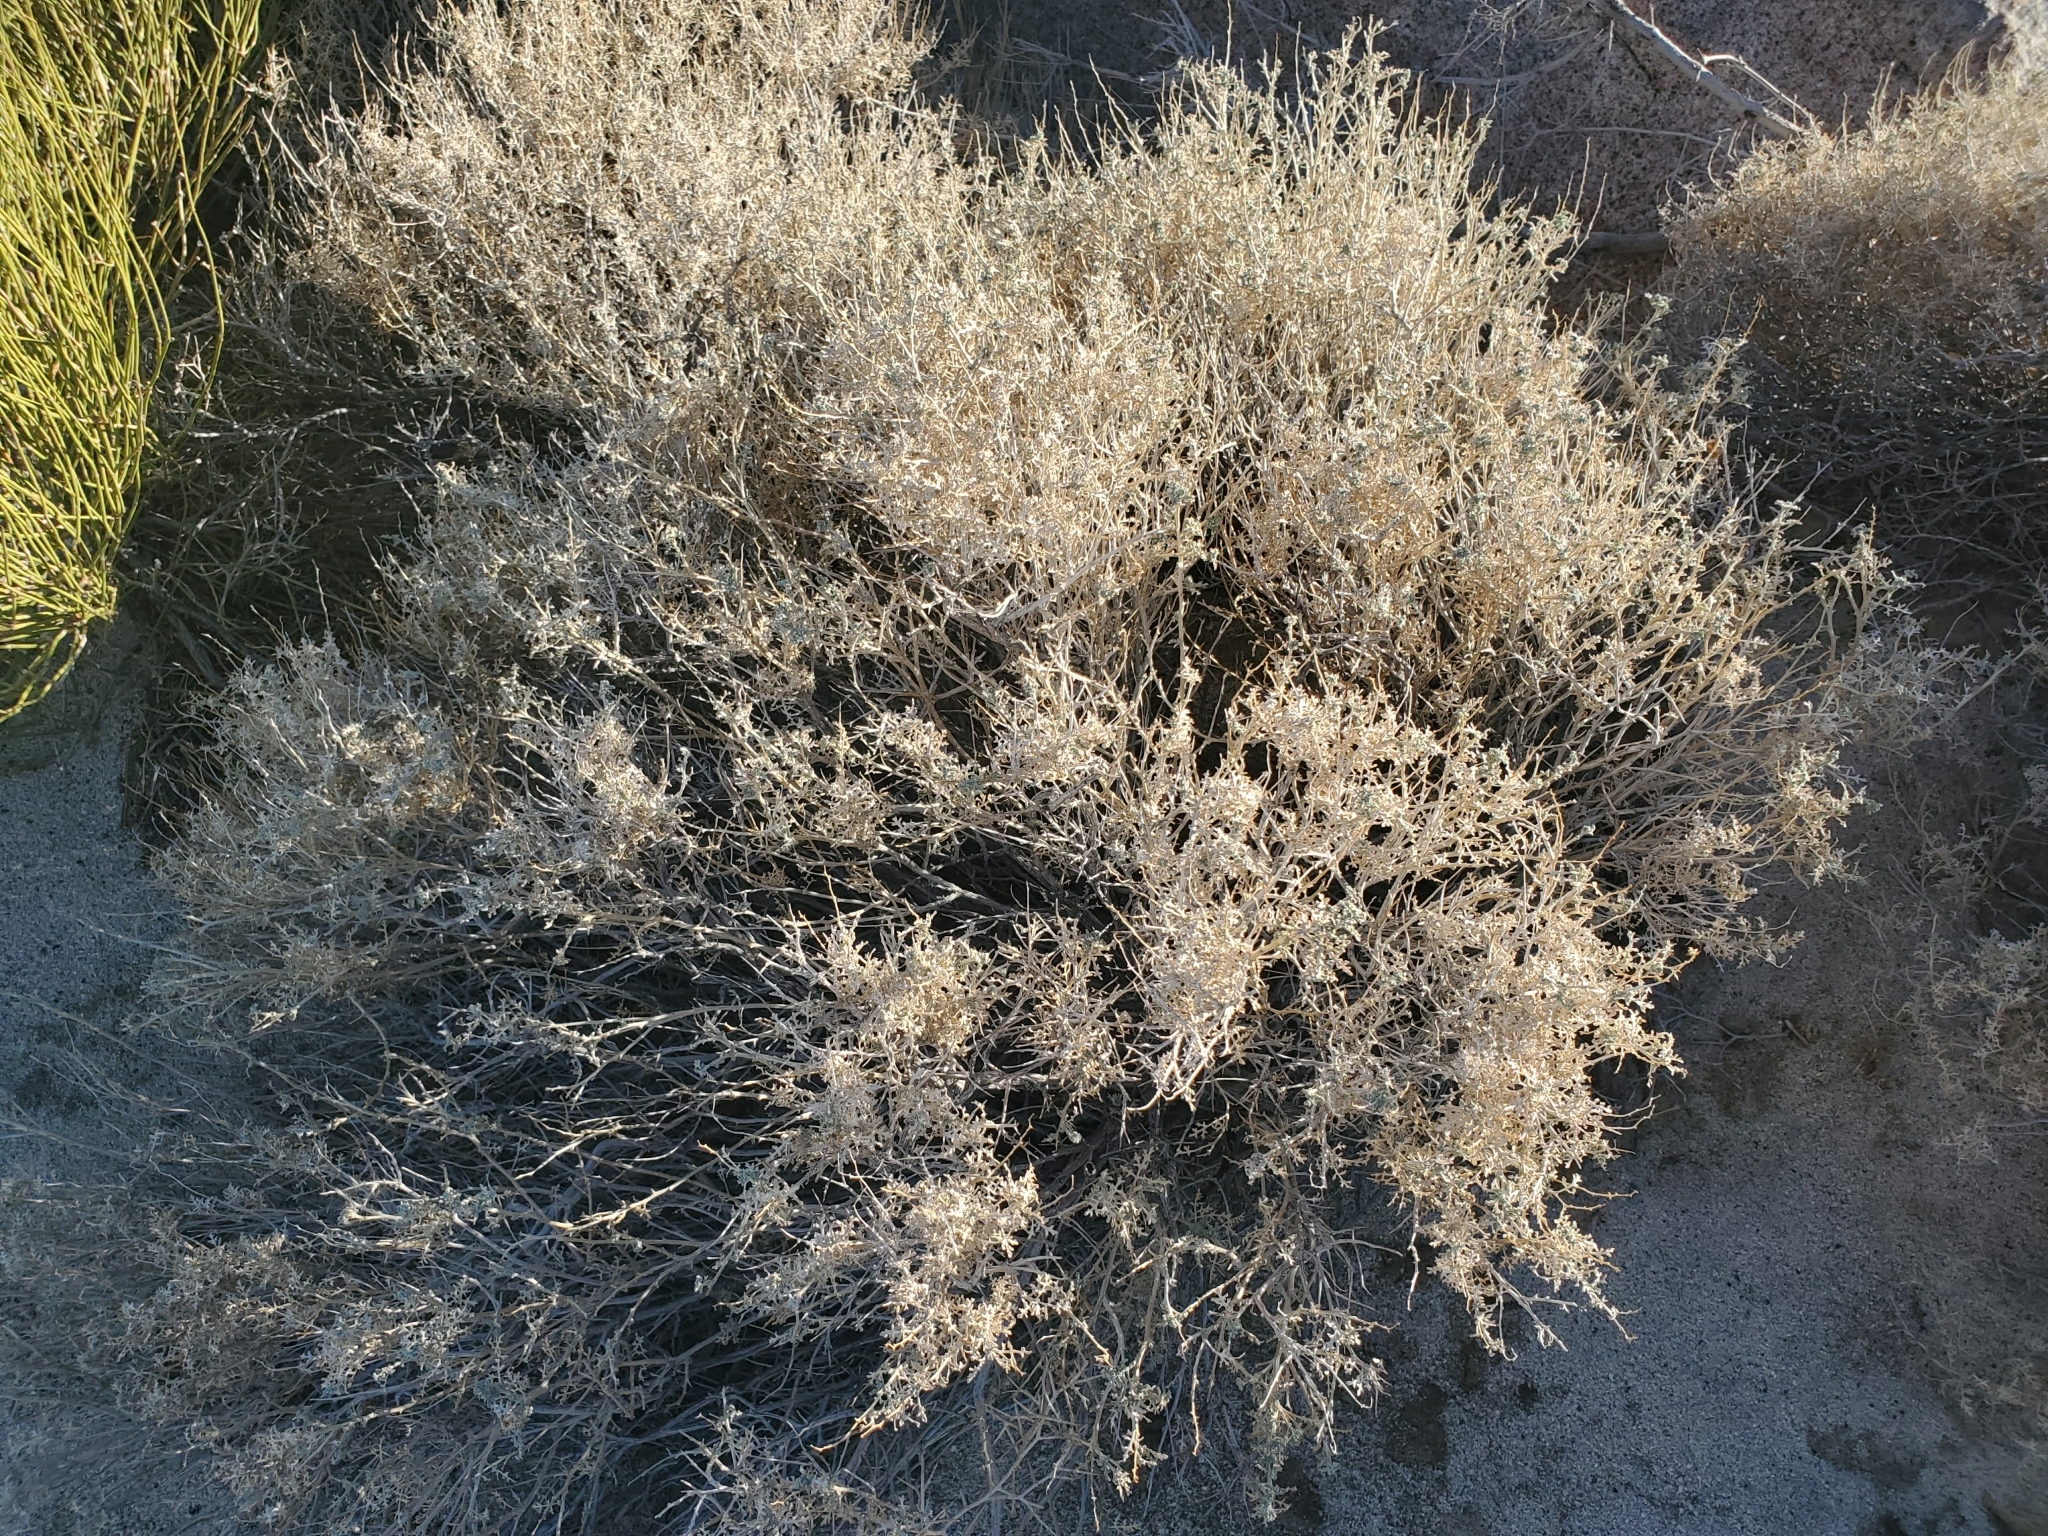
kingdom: Plantae
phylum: Tracheophyta
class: Magnoliopsida
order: Asterales
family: Asteraceae
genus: Ambrosia
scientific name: Ambrosia dumosa
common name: Bur-sage
